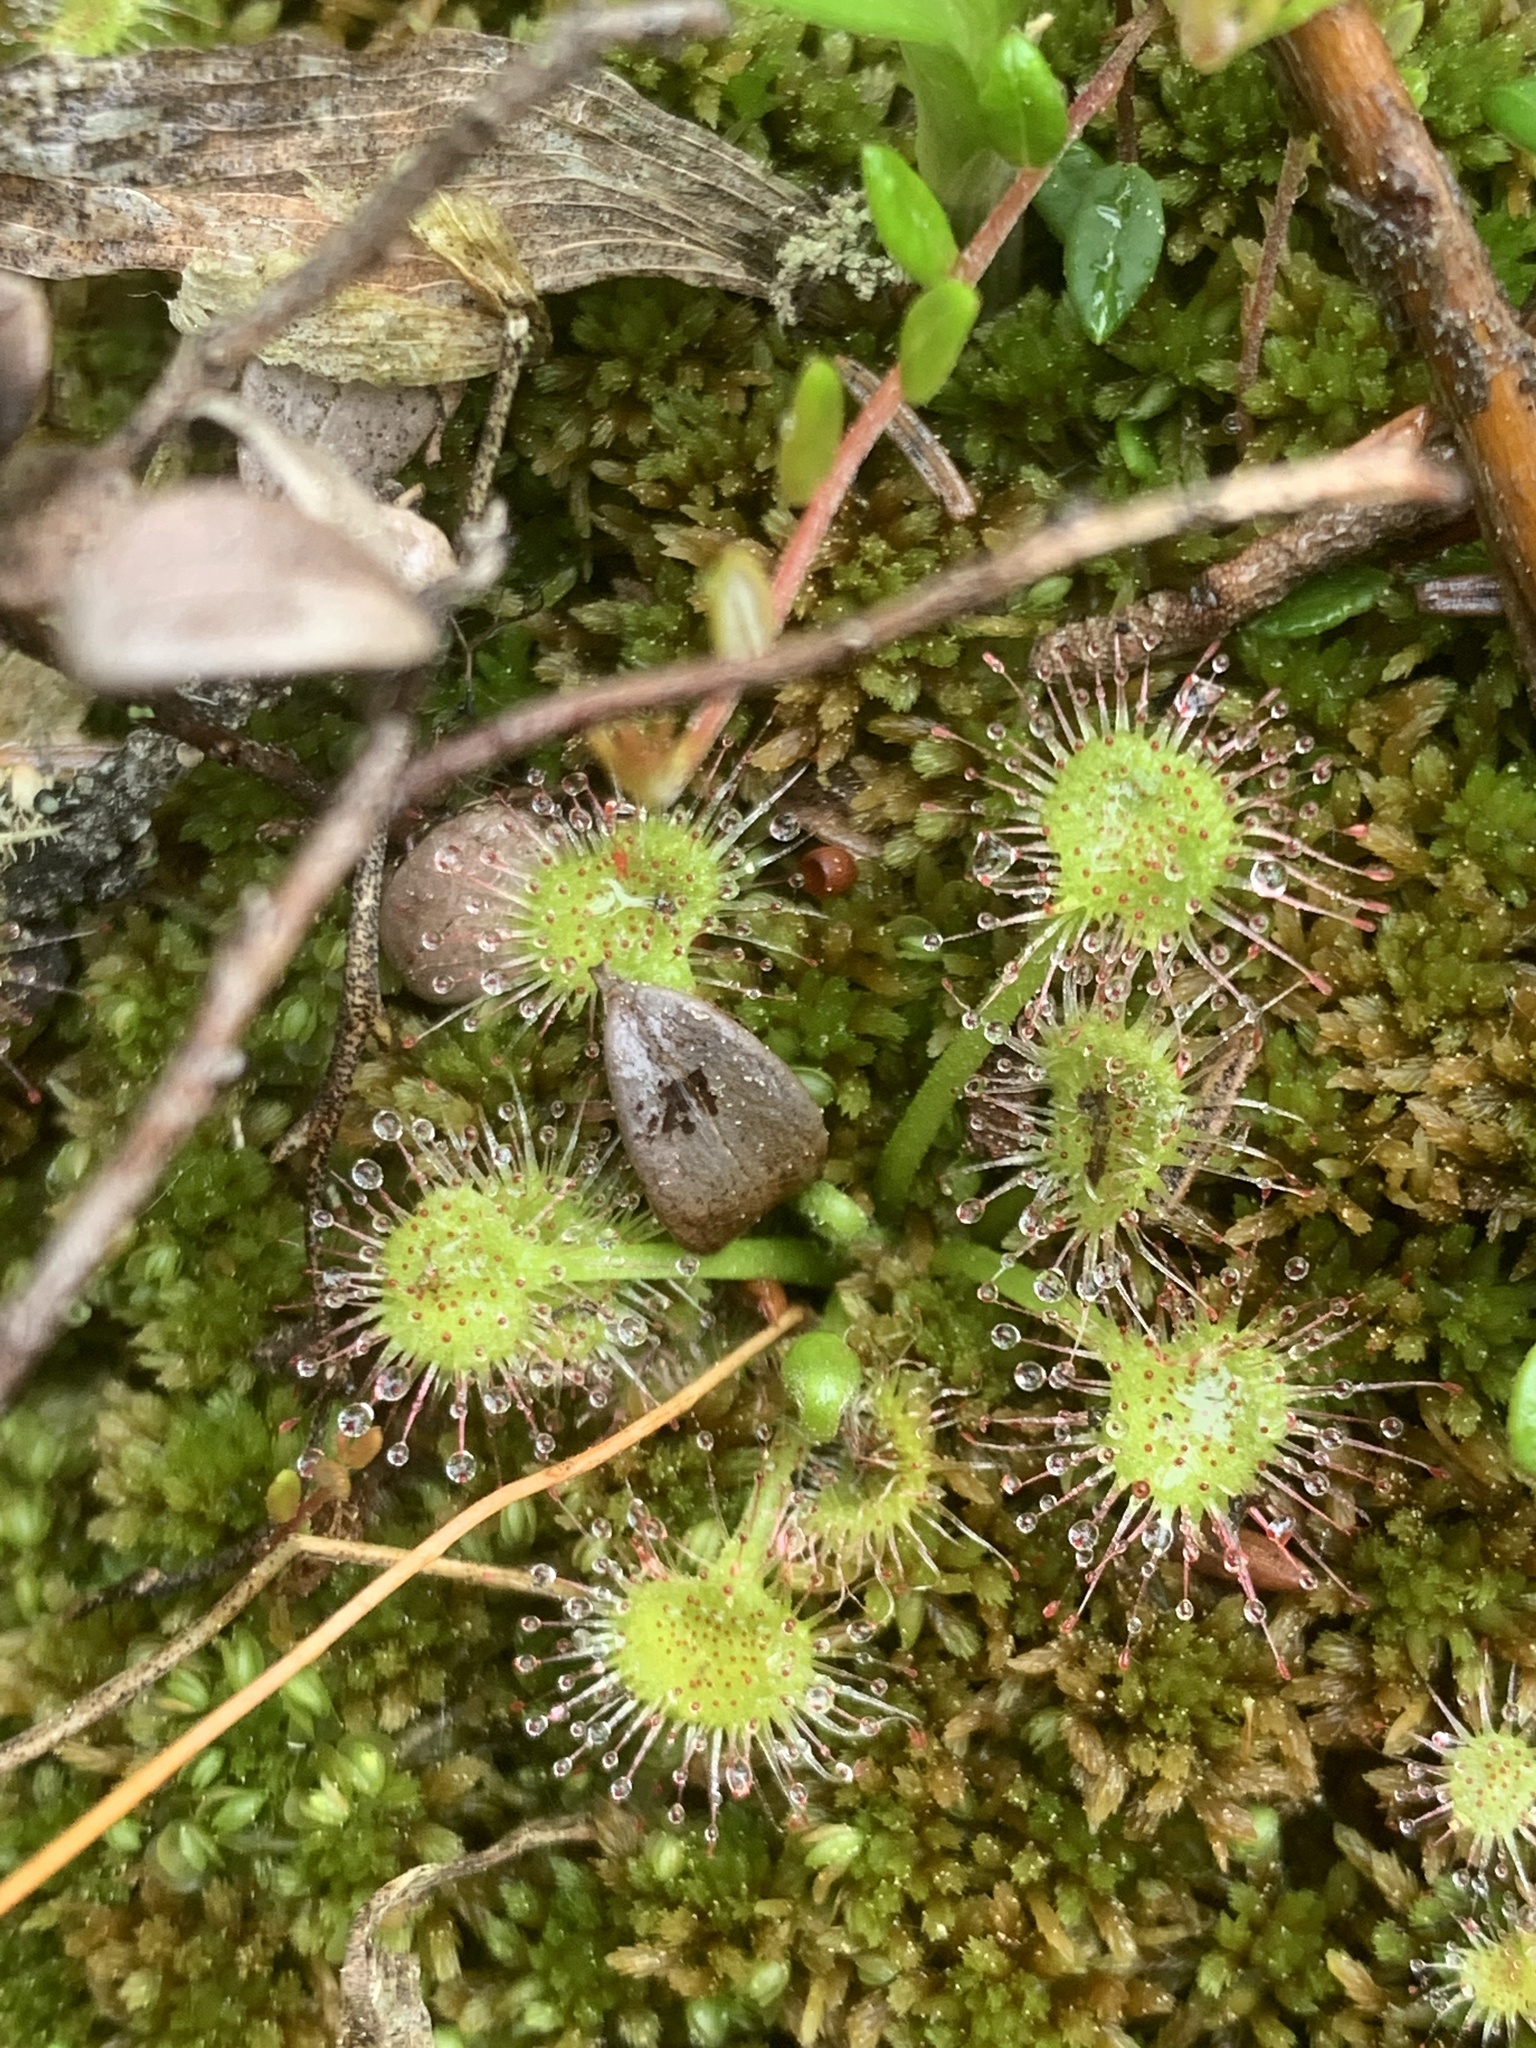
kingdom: Plantae
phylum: Tracheophyta
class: Magnoliopsida
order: Caryophyllales
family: Droseraceae
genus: Drosera
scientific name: Drosera rotundifolia
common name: Round-leaved sundew
